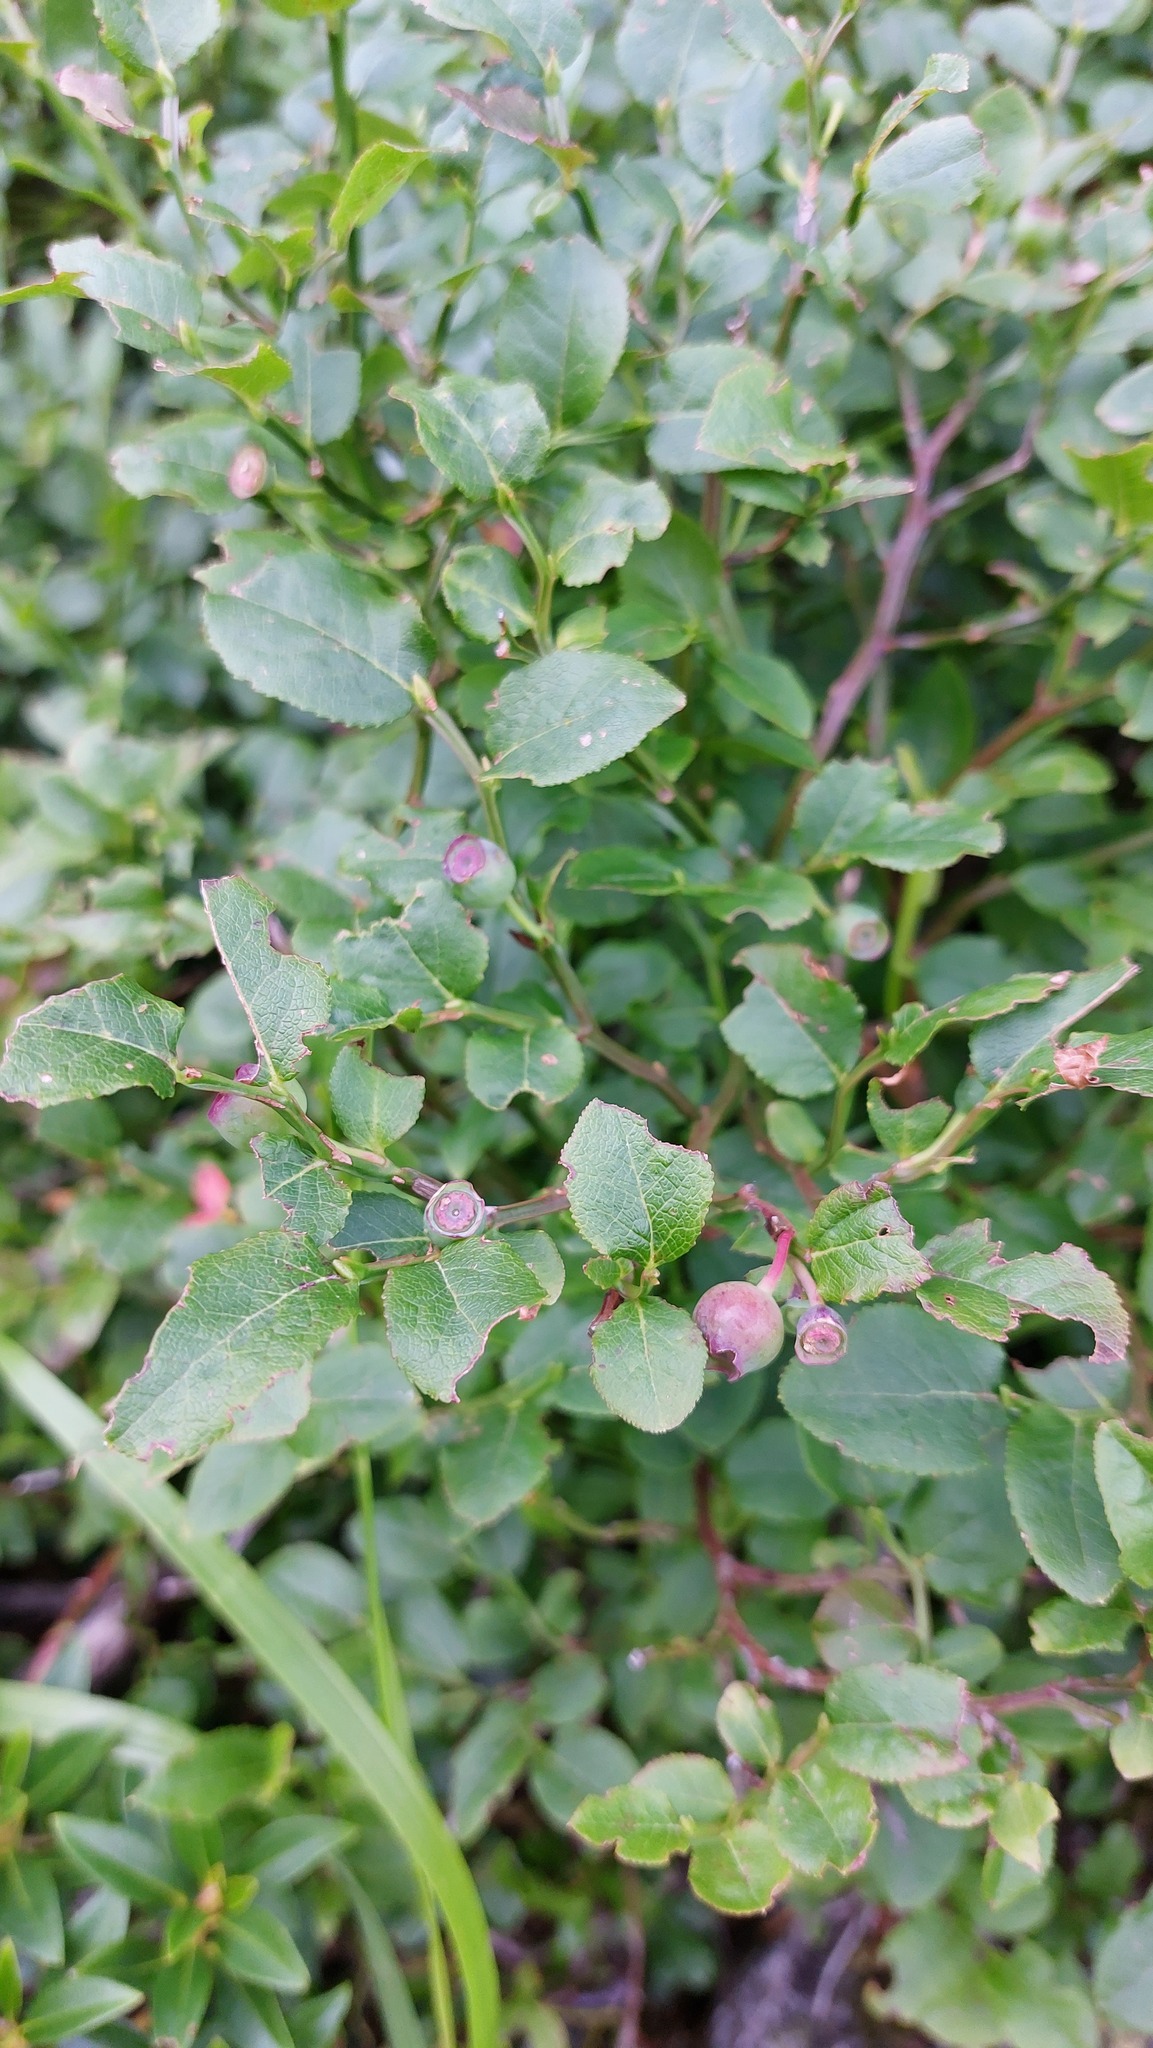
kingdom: Plantae
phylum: Tracheophyta
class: Magnoliopsida
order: Ericales
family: Ericaceae
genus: Vaccinium
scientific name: Vaccinium myrtillus
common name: Bilberry
